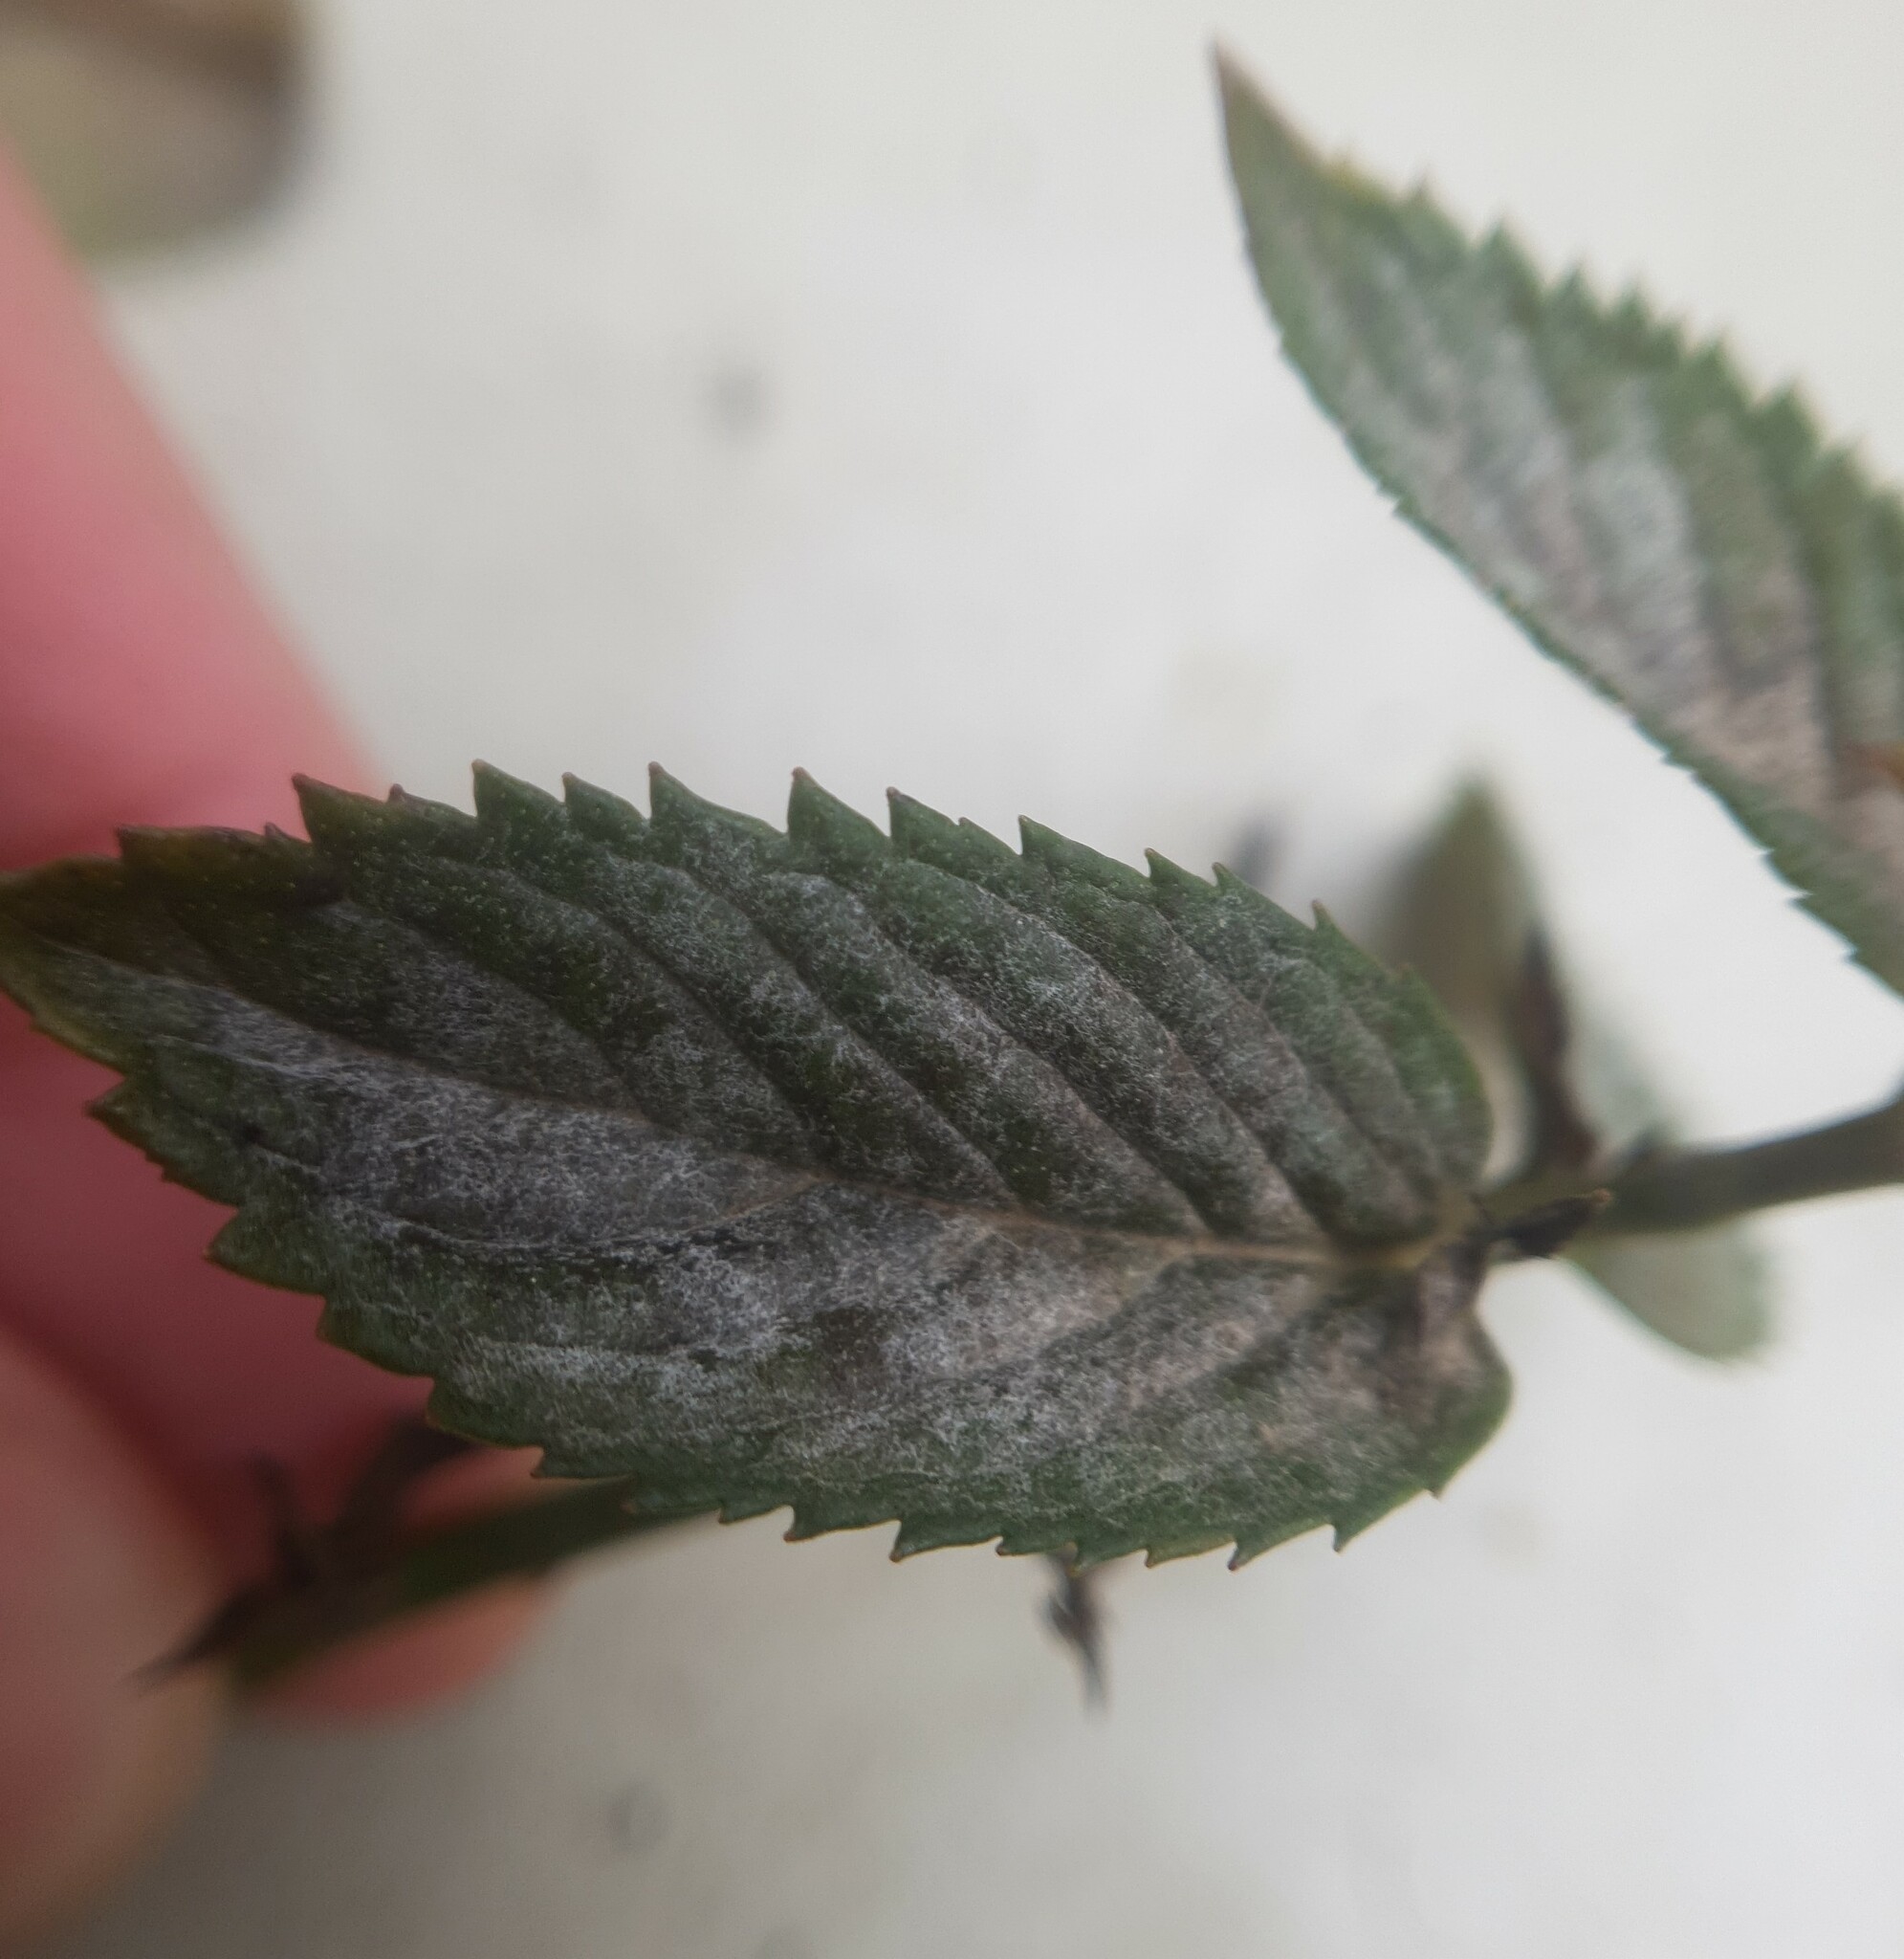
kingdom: Fungi
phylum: Ascomycota
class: Leotiomycetes
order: Helotiales
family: Erysiphaceae
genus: Golovinomyces
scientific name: Golovinomyces monardae
